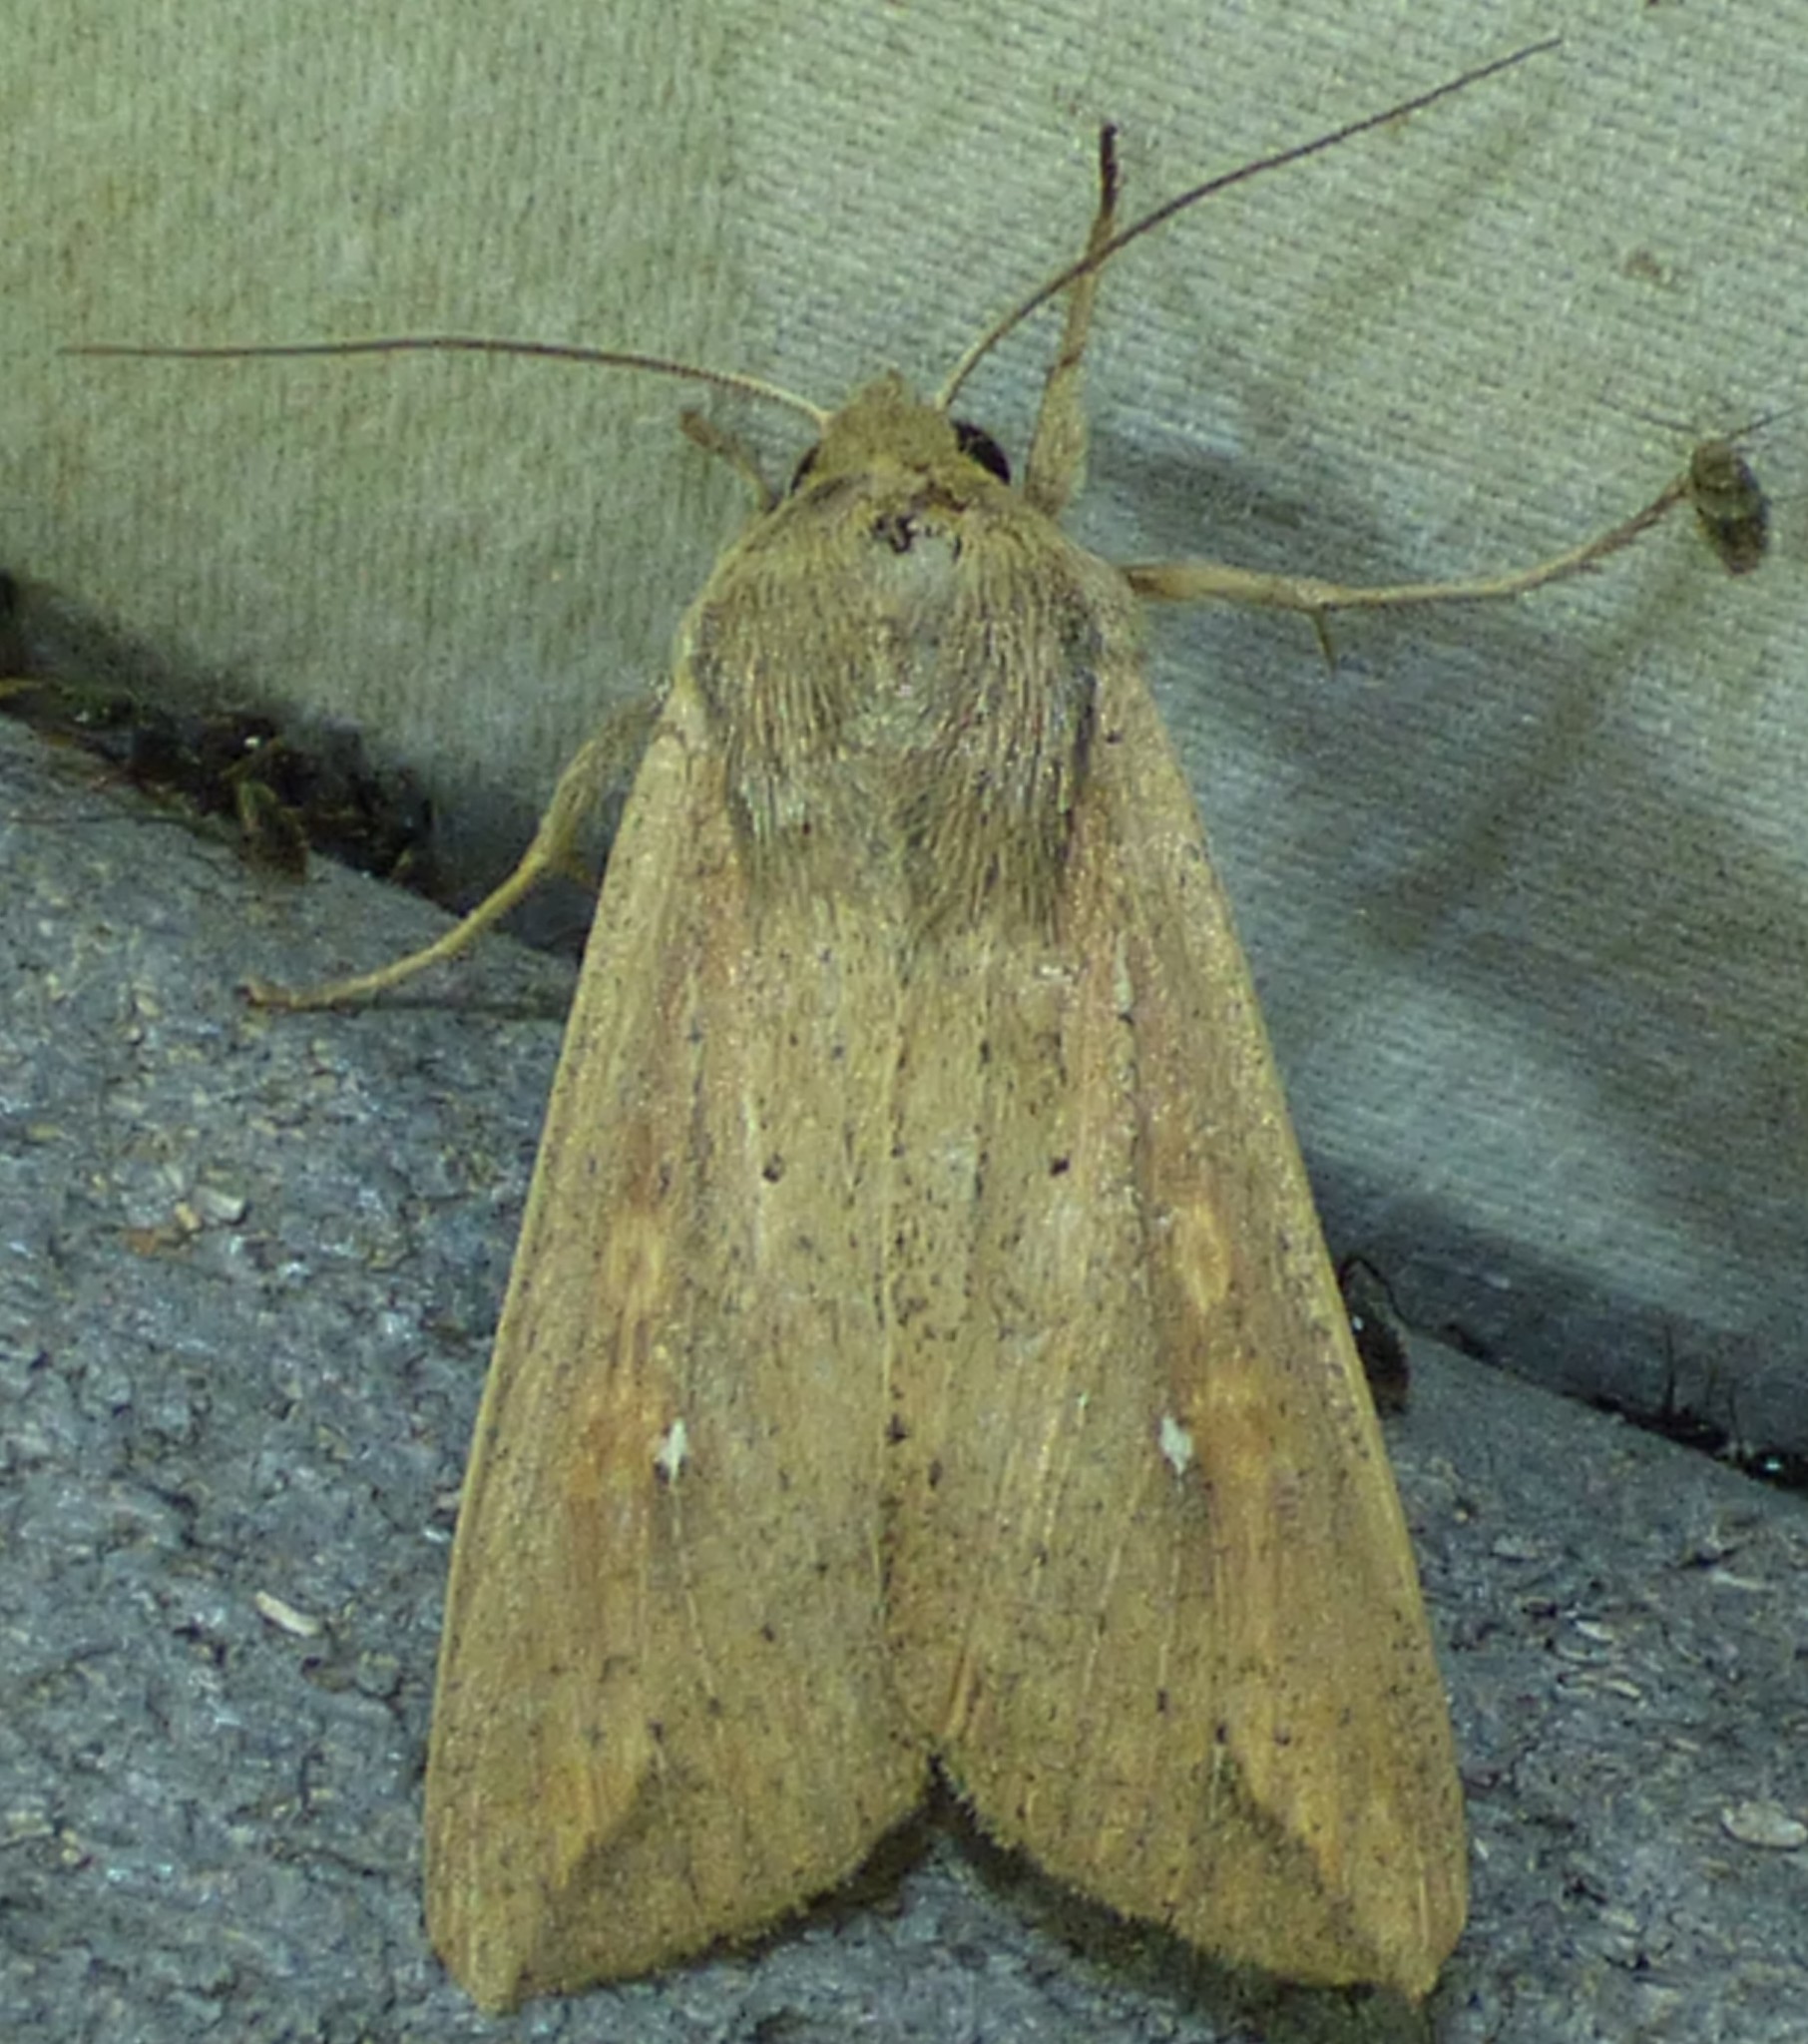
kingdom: Animalia
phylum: Arthropoda
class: Insecta
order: Lepidoptera
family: Noctuidae
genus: Mythimna
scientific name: Mythimna unipuncta
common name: White-speck
